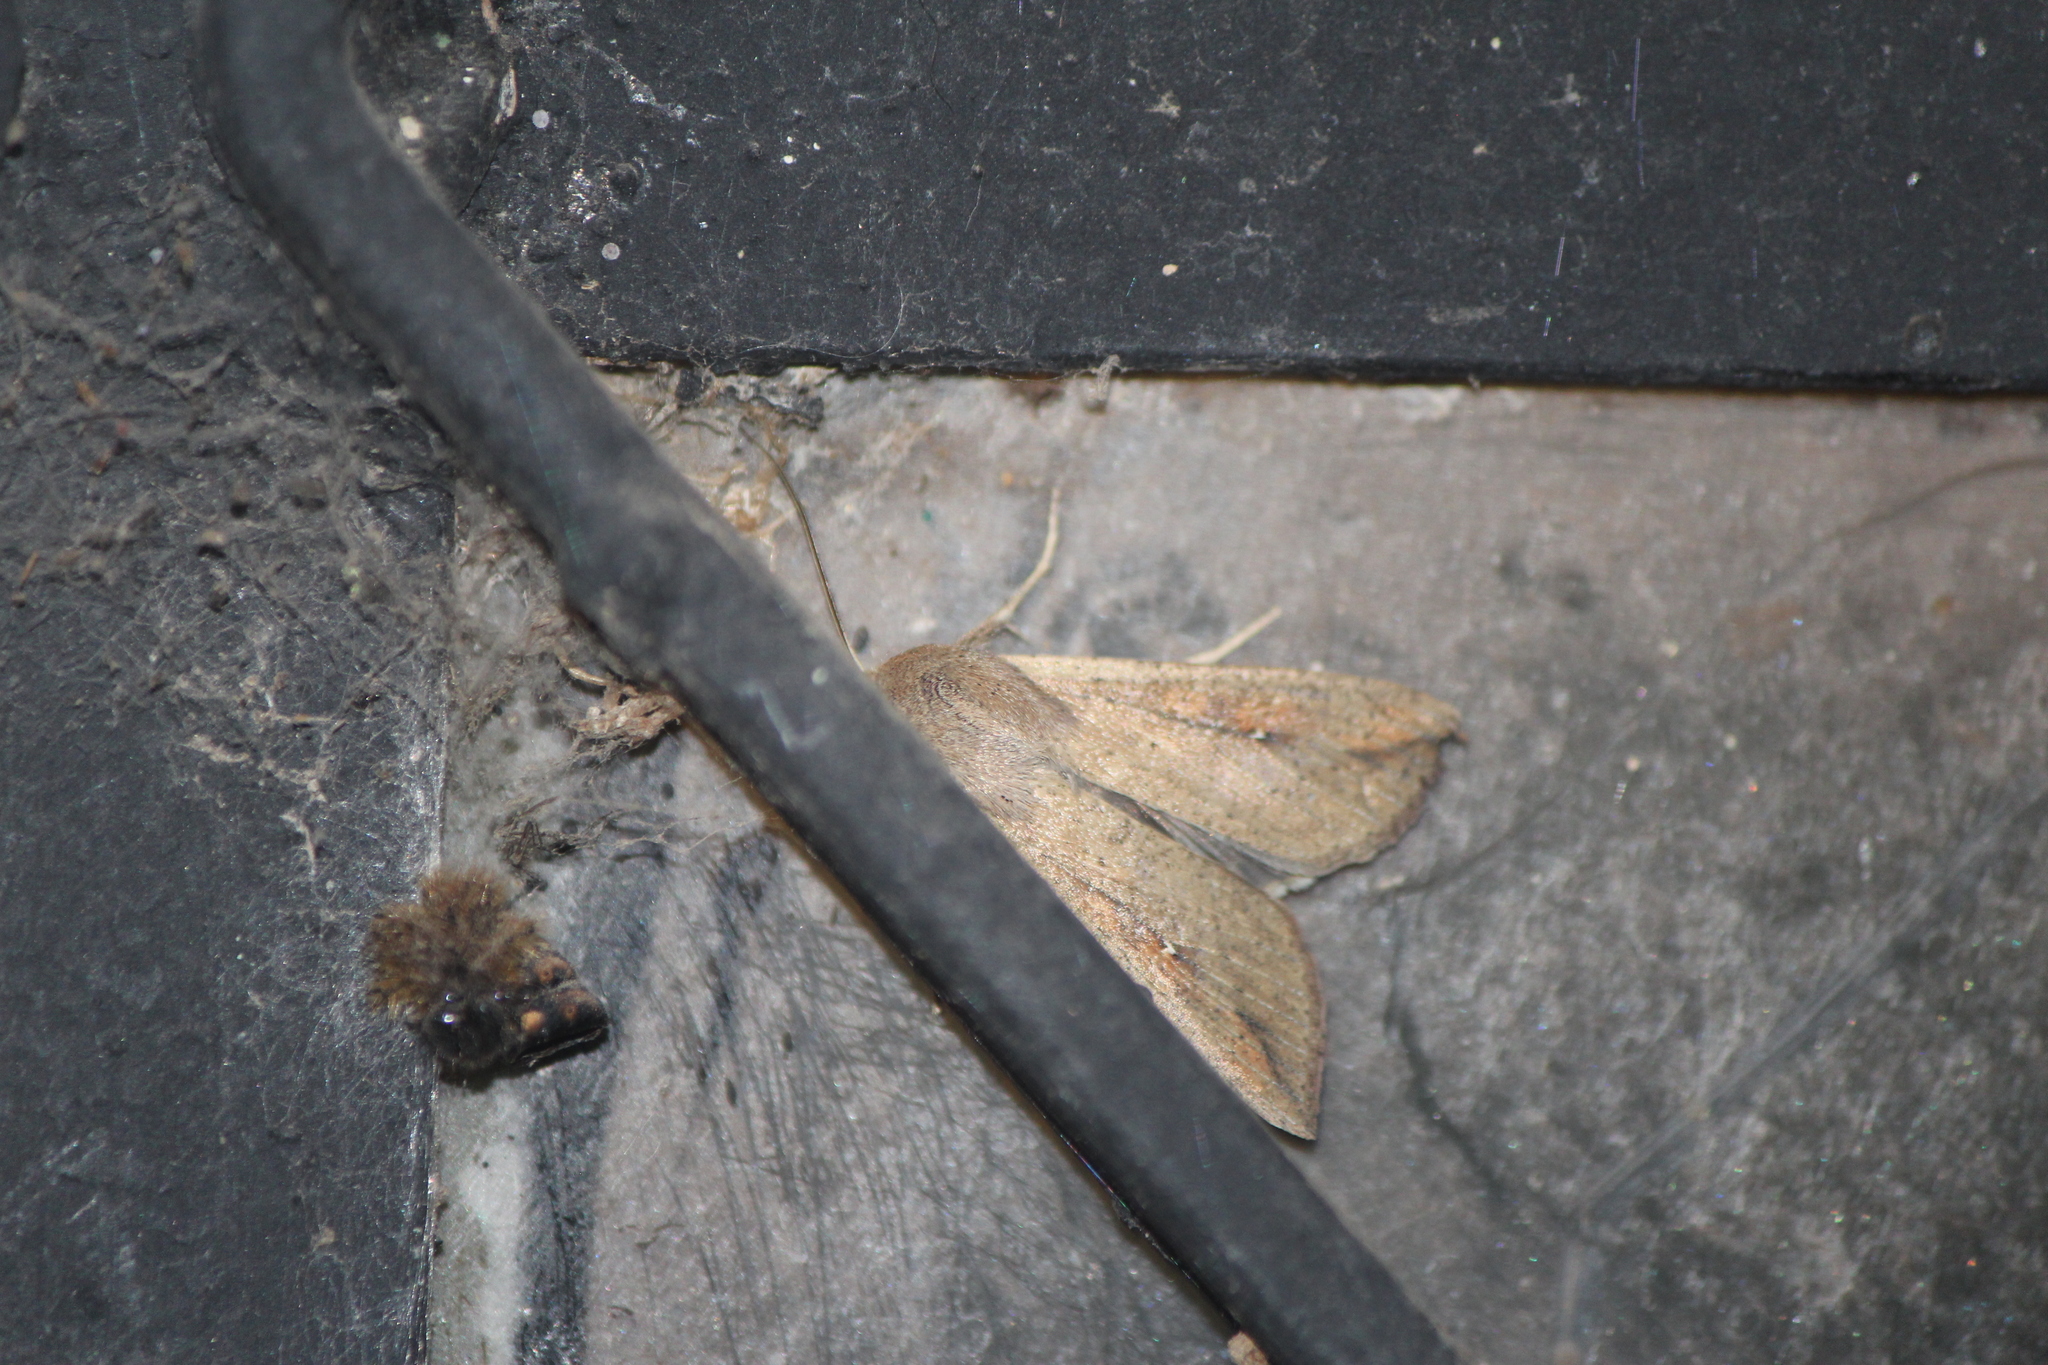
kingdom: Animalia
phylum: Arthropoda
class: Insecta
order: Lepidoptera
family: Noctuidae
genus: Mythimna
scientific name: Mythimna unipuncta
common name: White-speck
